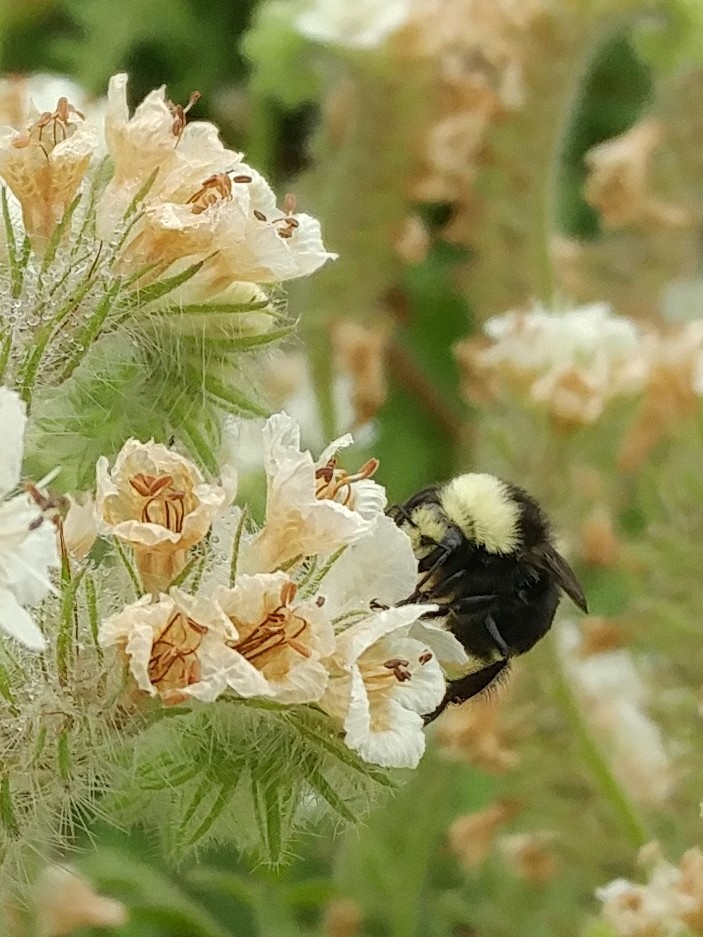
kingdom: Animalia
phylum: Arthropoda
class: Insecta
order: Hymenoptera
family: Apidae
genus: Bombus
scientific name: Bombus vosnesenskii
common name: Vosnesensky bumble bee
